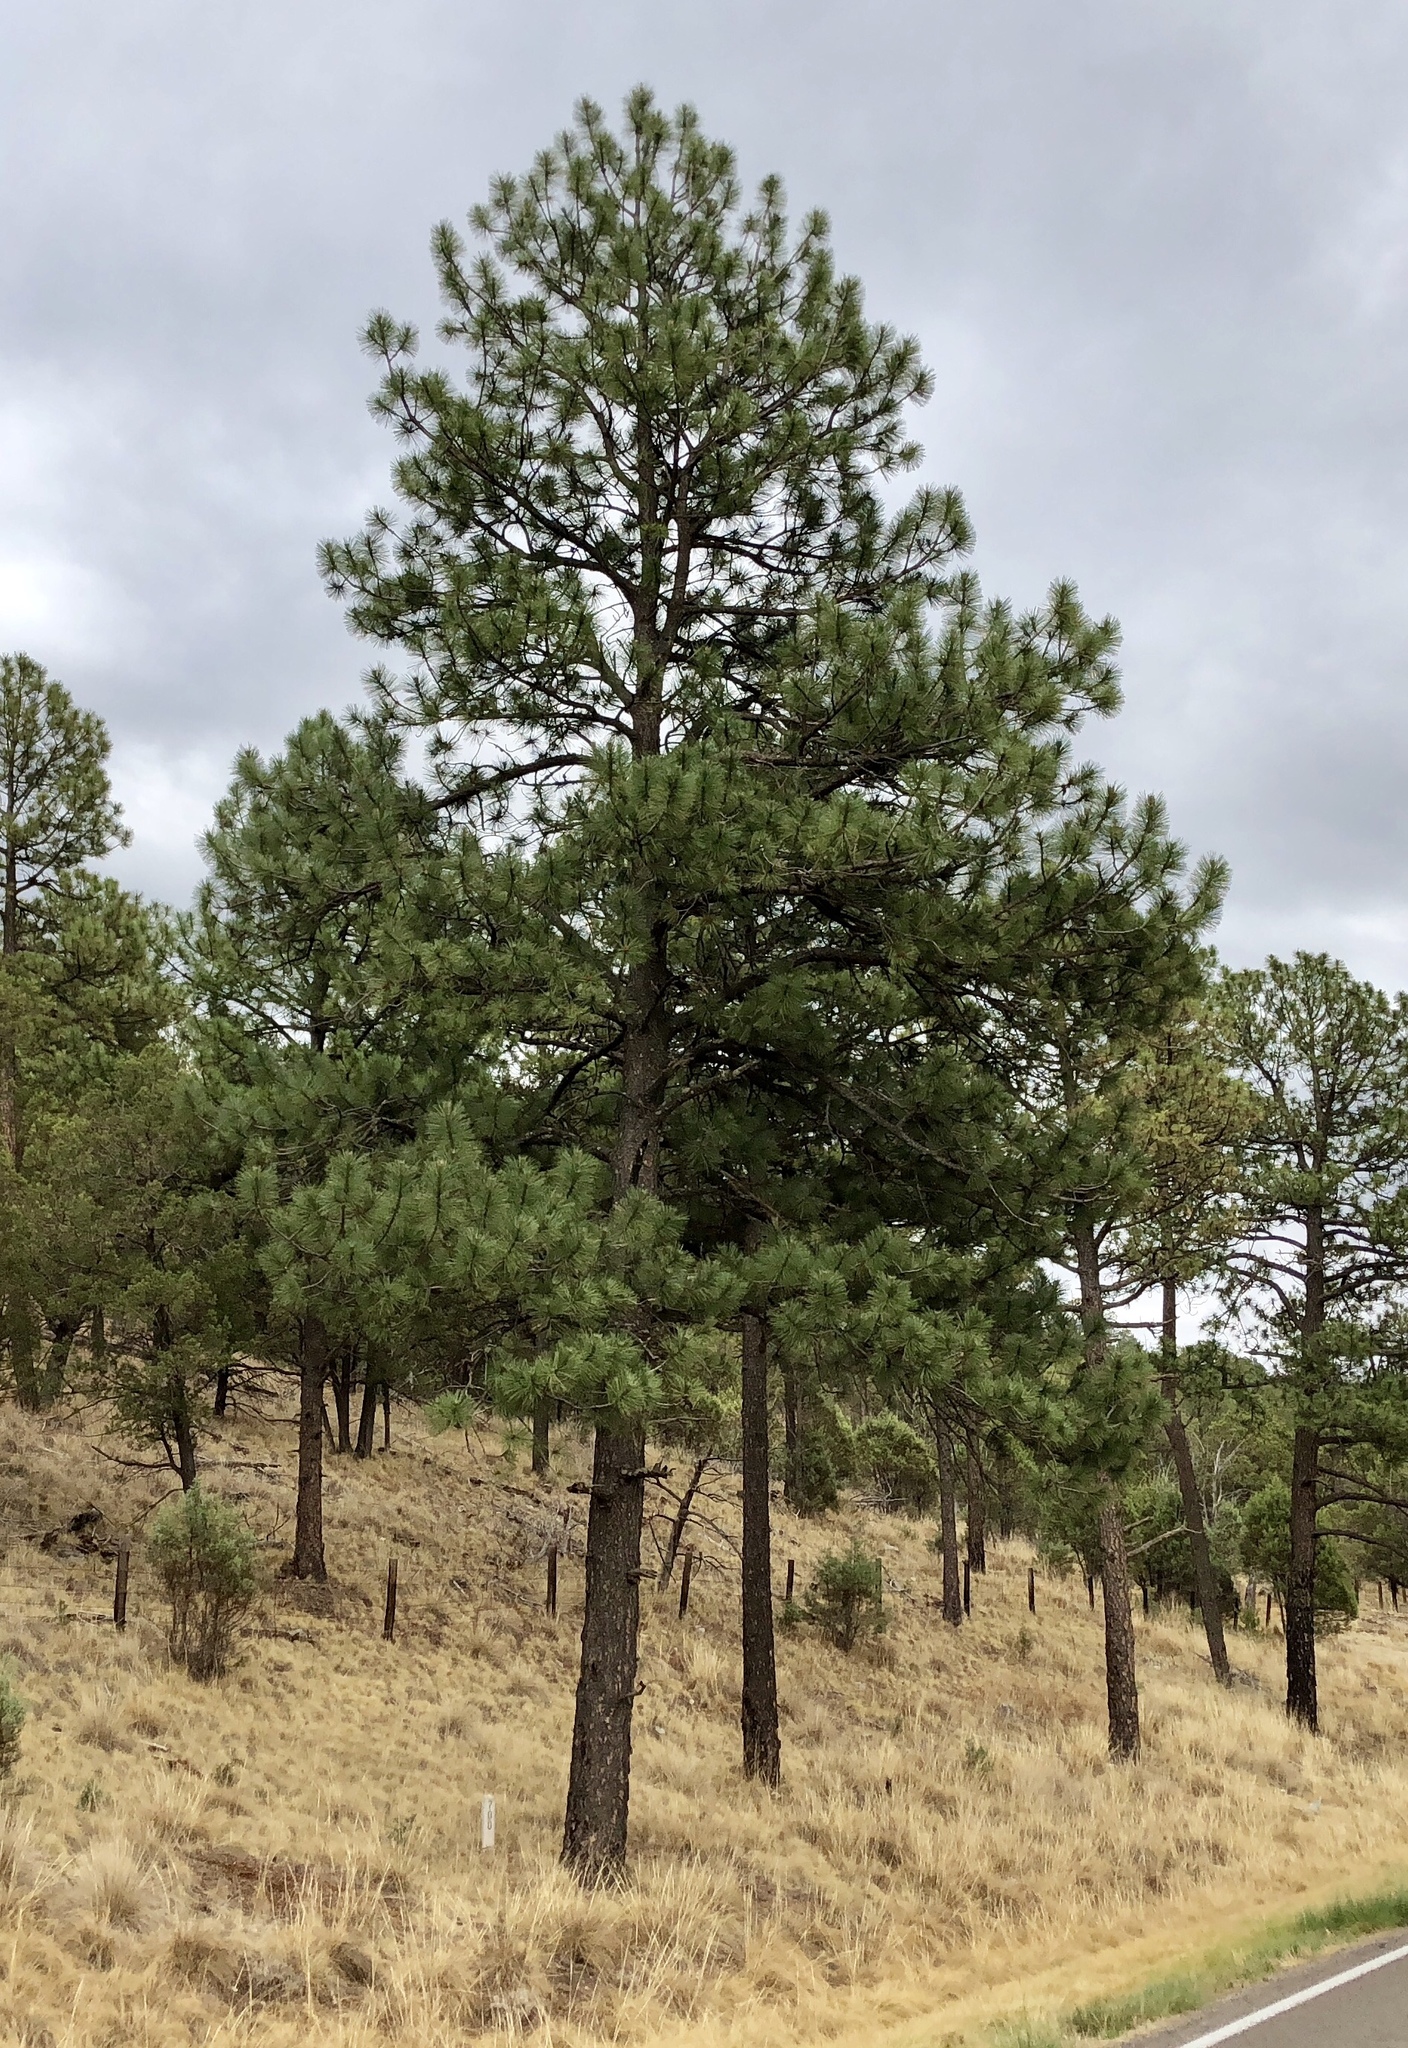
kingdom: Plantae
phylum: Tracheophyta
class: Pinopsida
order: Pinales
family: Pinaceae
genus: Pinus
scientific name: Pinus ponderosa
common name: Western yellow-pine
